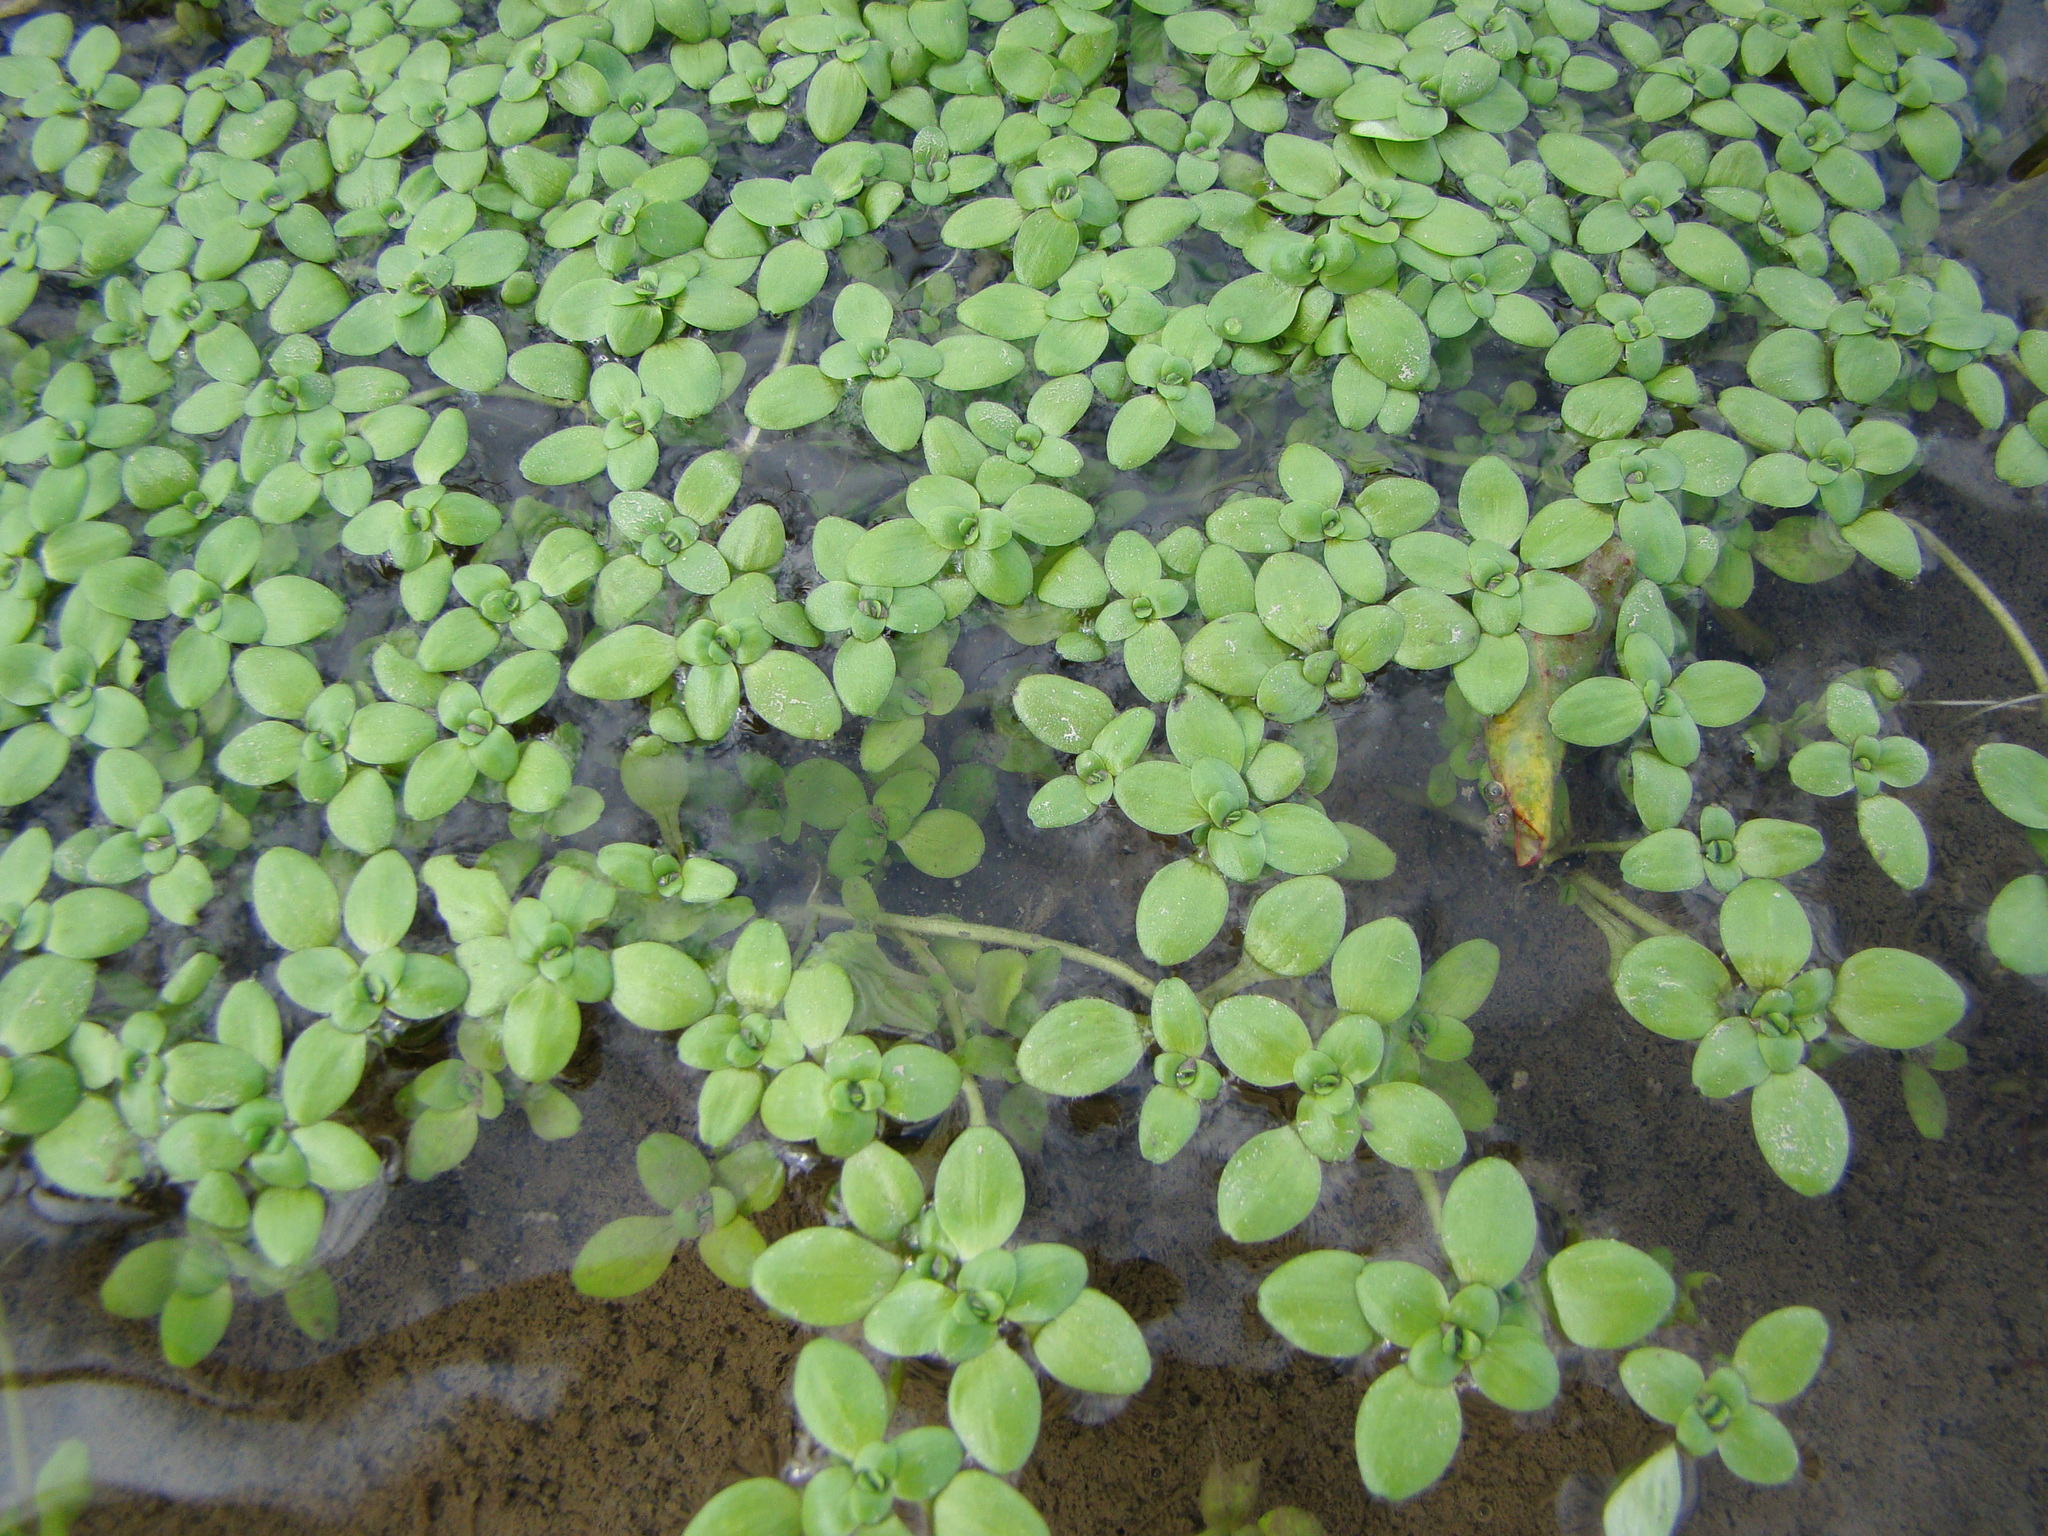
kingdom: Plantae
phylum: Tracheophyta
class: Magnoliopsida
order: Lamiales
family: Plantaginaceae
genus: Callitriche
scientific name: Callitriche stagnalis
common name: Common water-starwort
